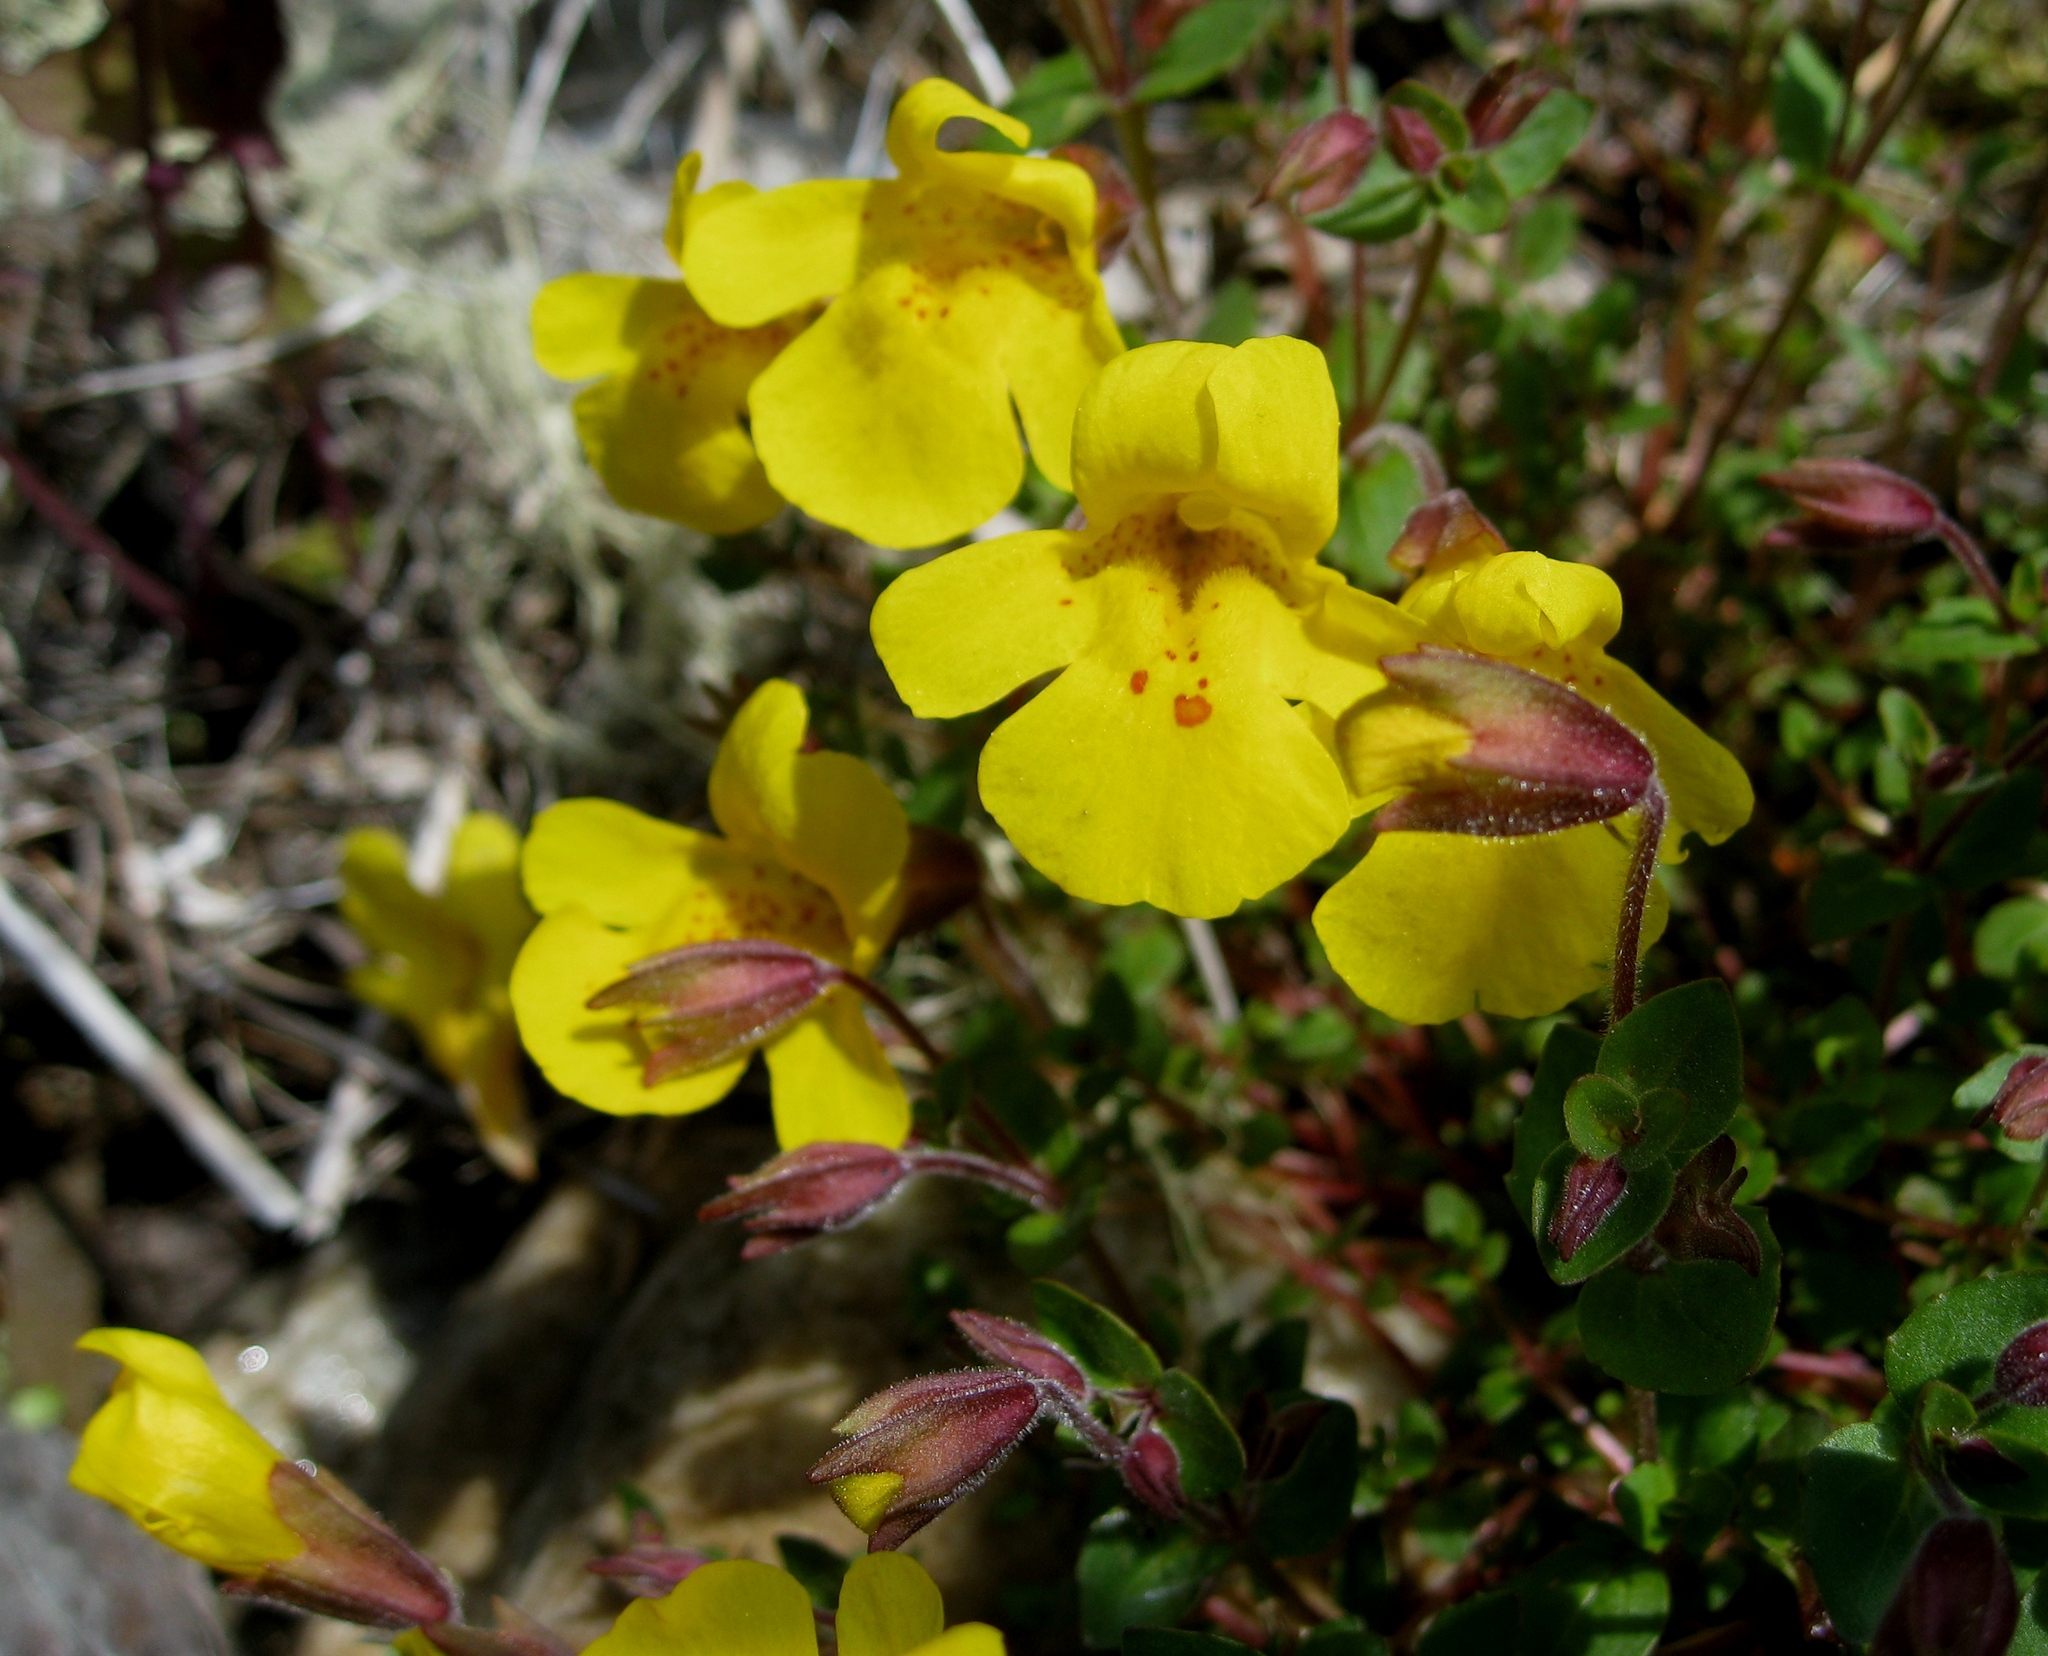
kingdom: Plantae
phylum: Tracheophyta
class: Magnoliopsida
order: Lamiales
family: Phrymaceae
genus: Erythranthe
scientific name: Erythranthe guttata
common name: Monkeyflower
